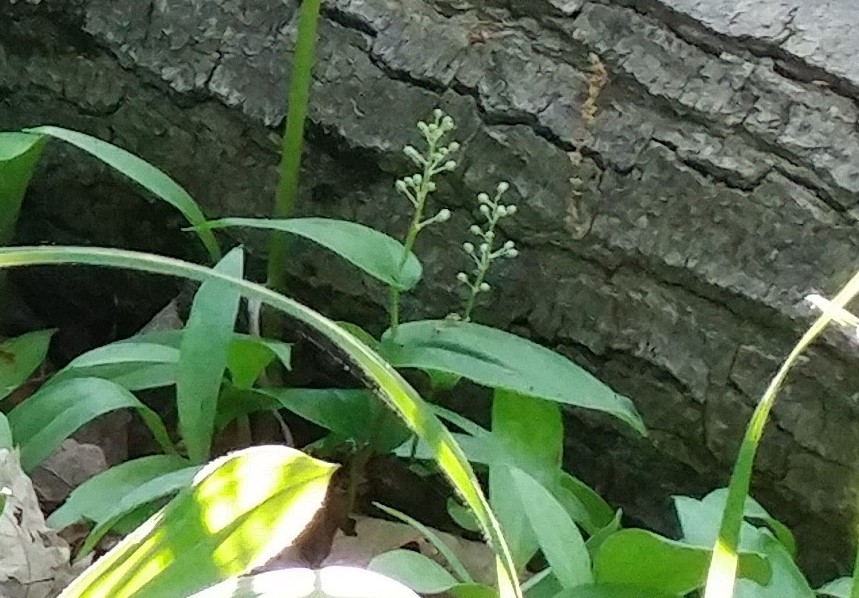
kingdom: Plantae
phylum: Tracheophyta
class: Liliopsida
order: Asparagales
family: Asparagaceae
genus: Maianthemum
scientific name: Maianthemum canadense
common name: False lily-of-the-valley
